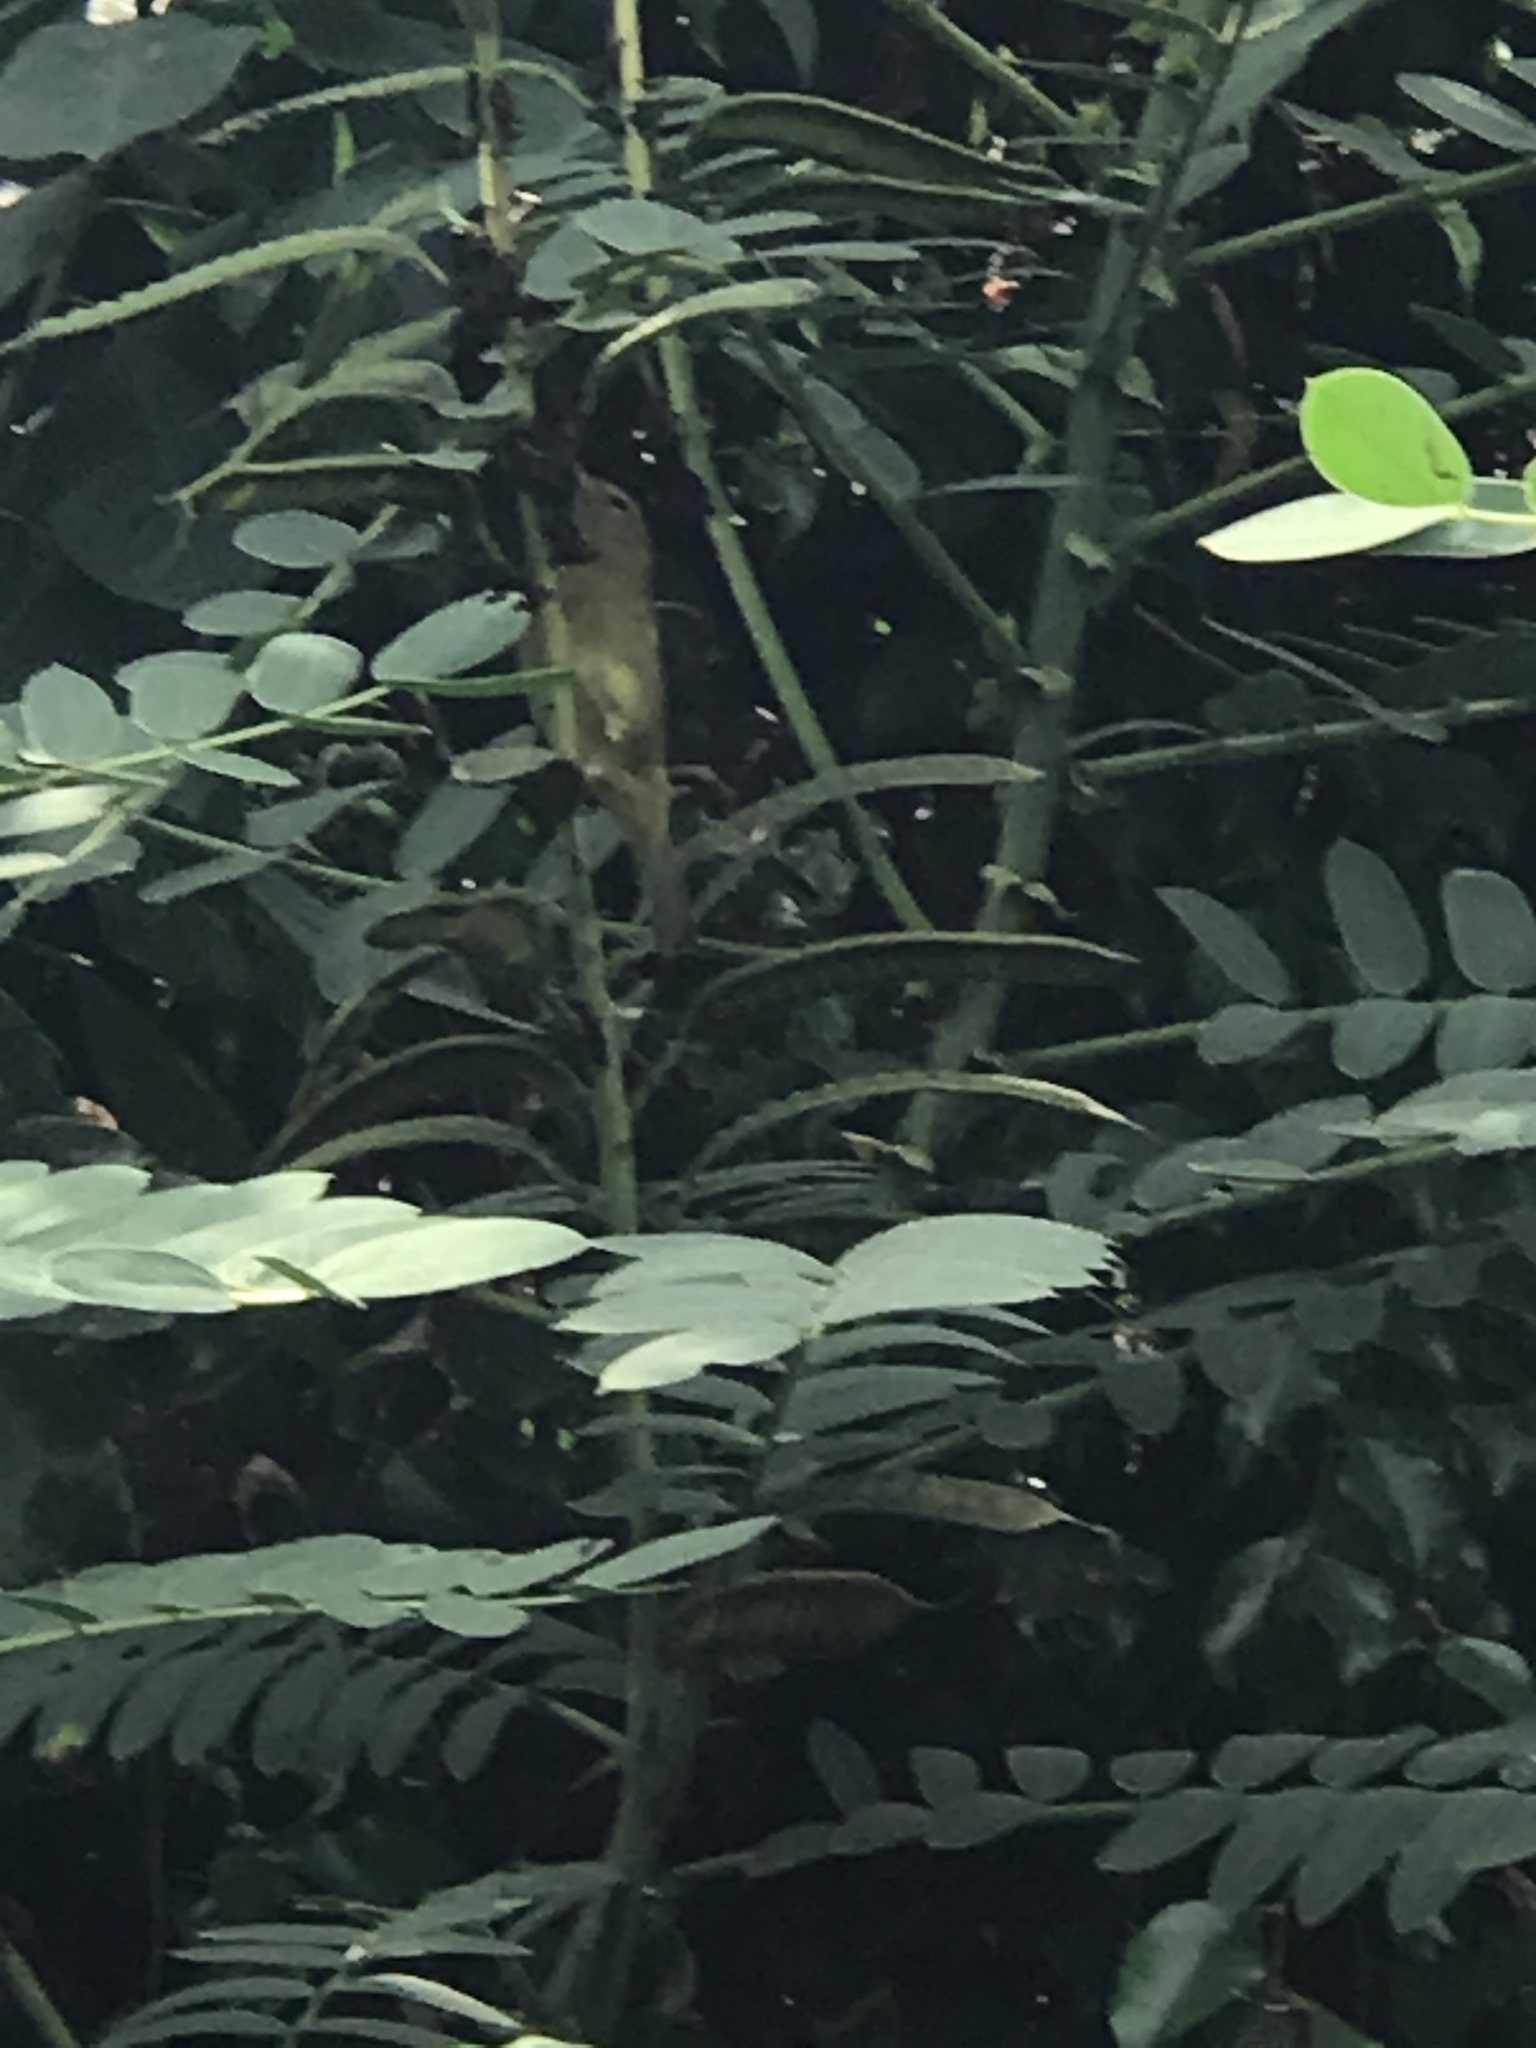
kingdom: Animalia
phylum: Chordata
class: Aves
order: Passeriformes
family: Parulidae
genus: Leiothlypis
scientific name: Leiothlypis celata
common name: Orange-crowned warbler
